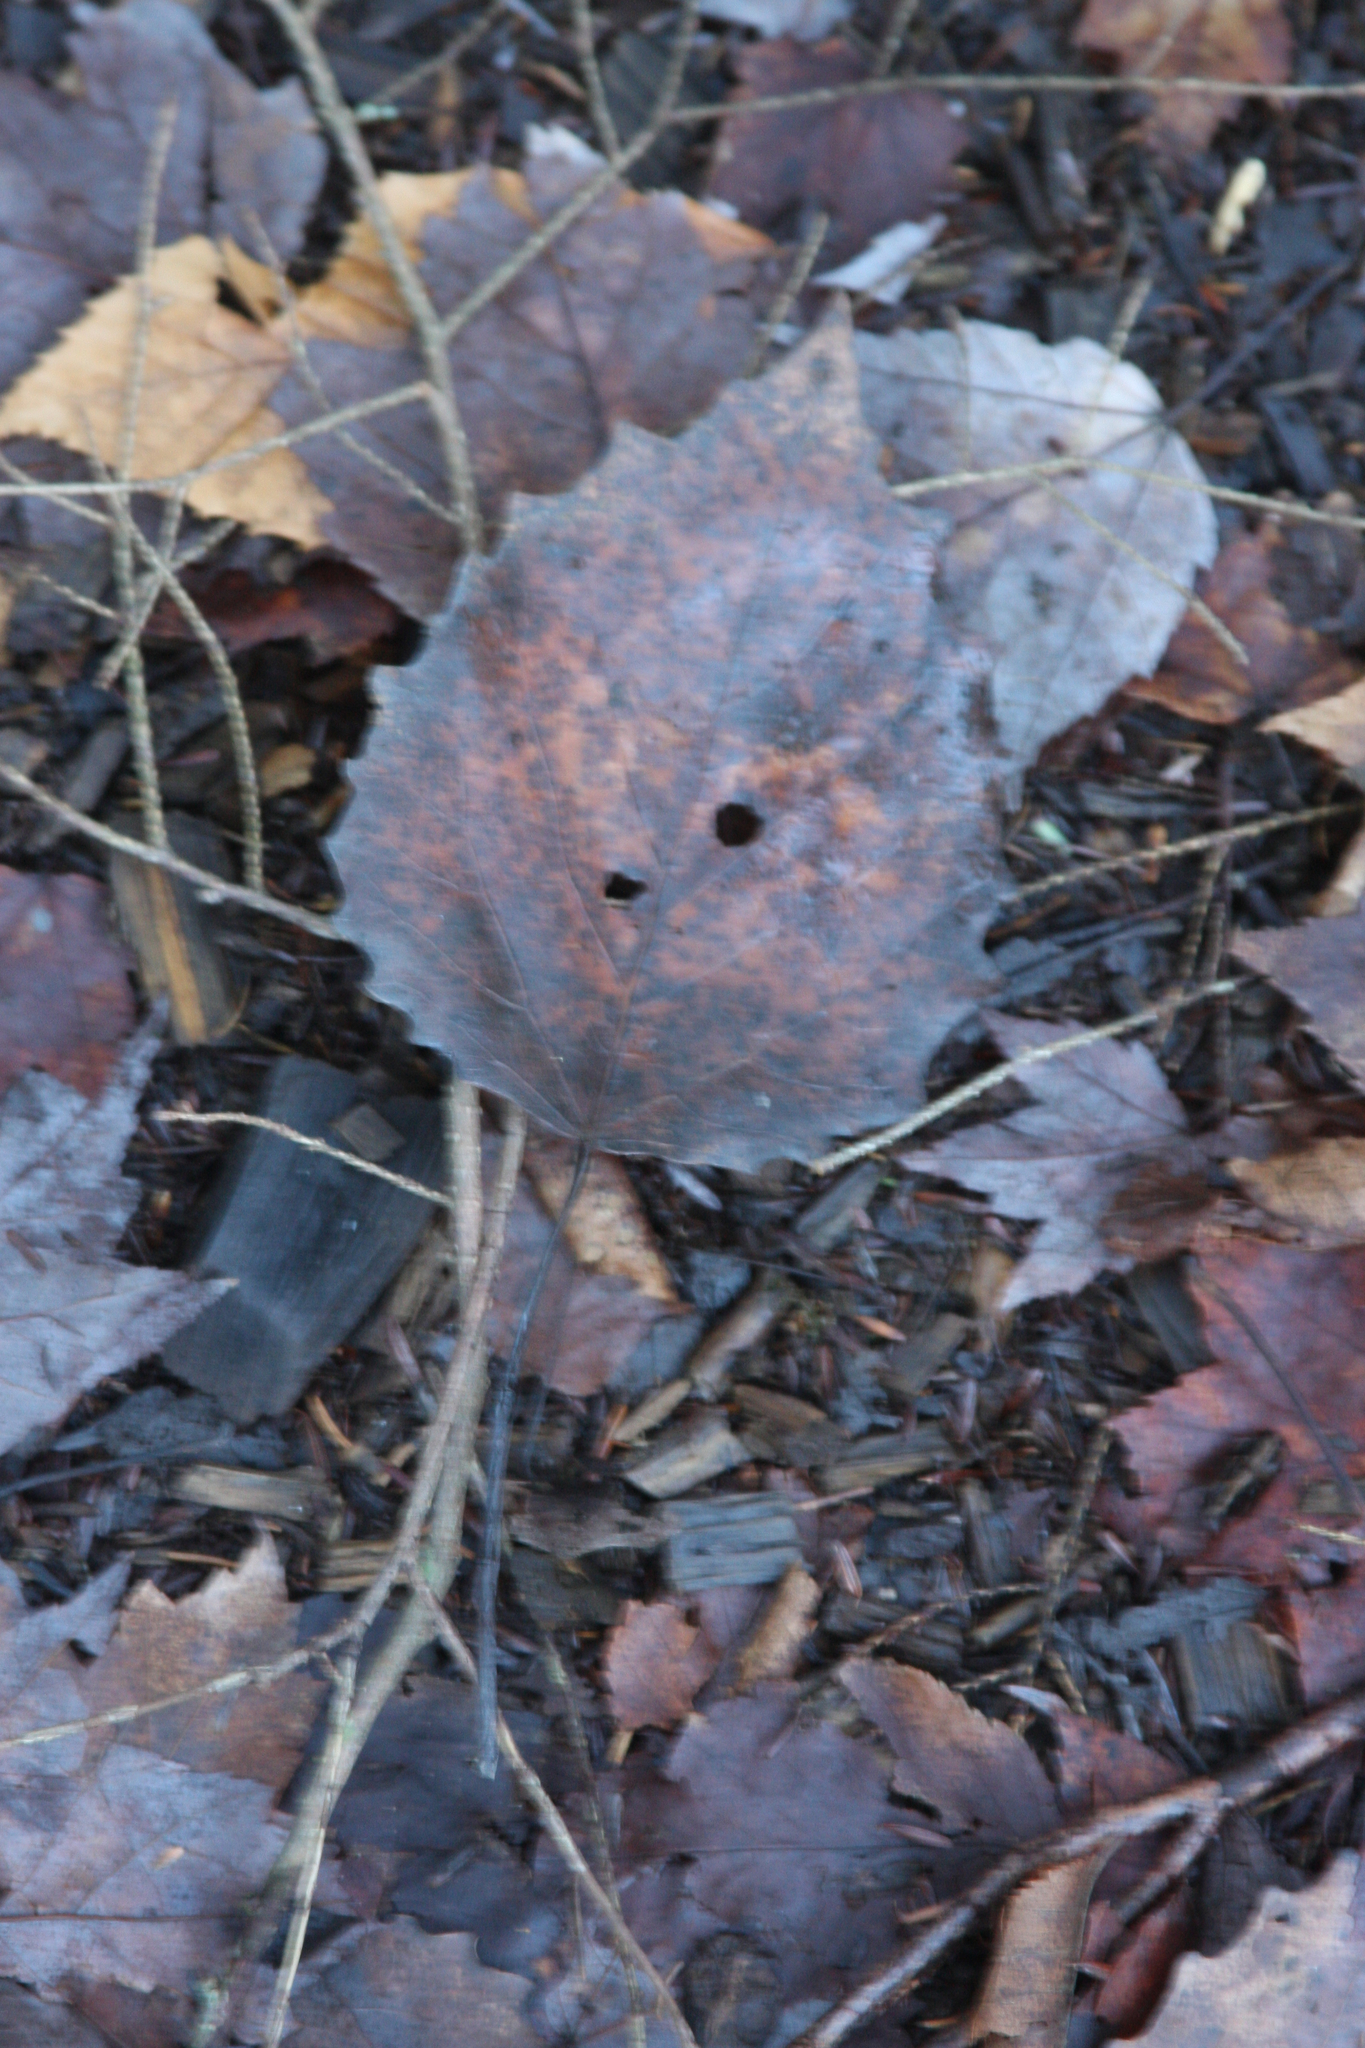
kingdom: Plantae
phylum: Tracheophyta
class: Magnoliopsida
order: Malpighiales
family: Salicaceae
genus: Populus
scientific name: Populus grandidentata
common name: Bigtooth aspen
